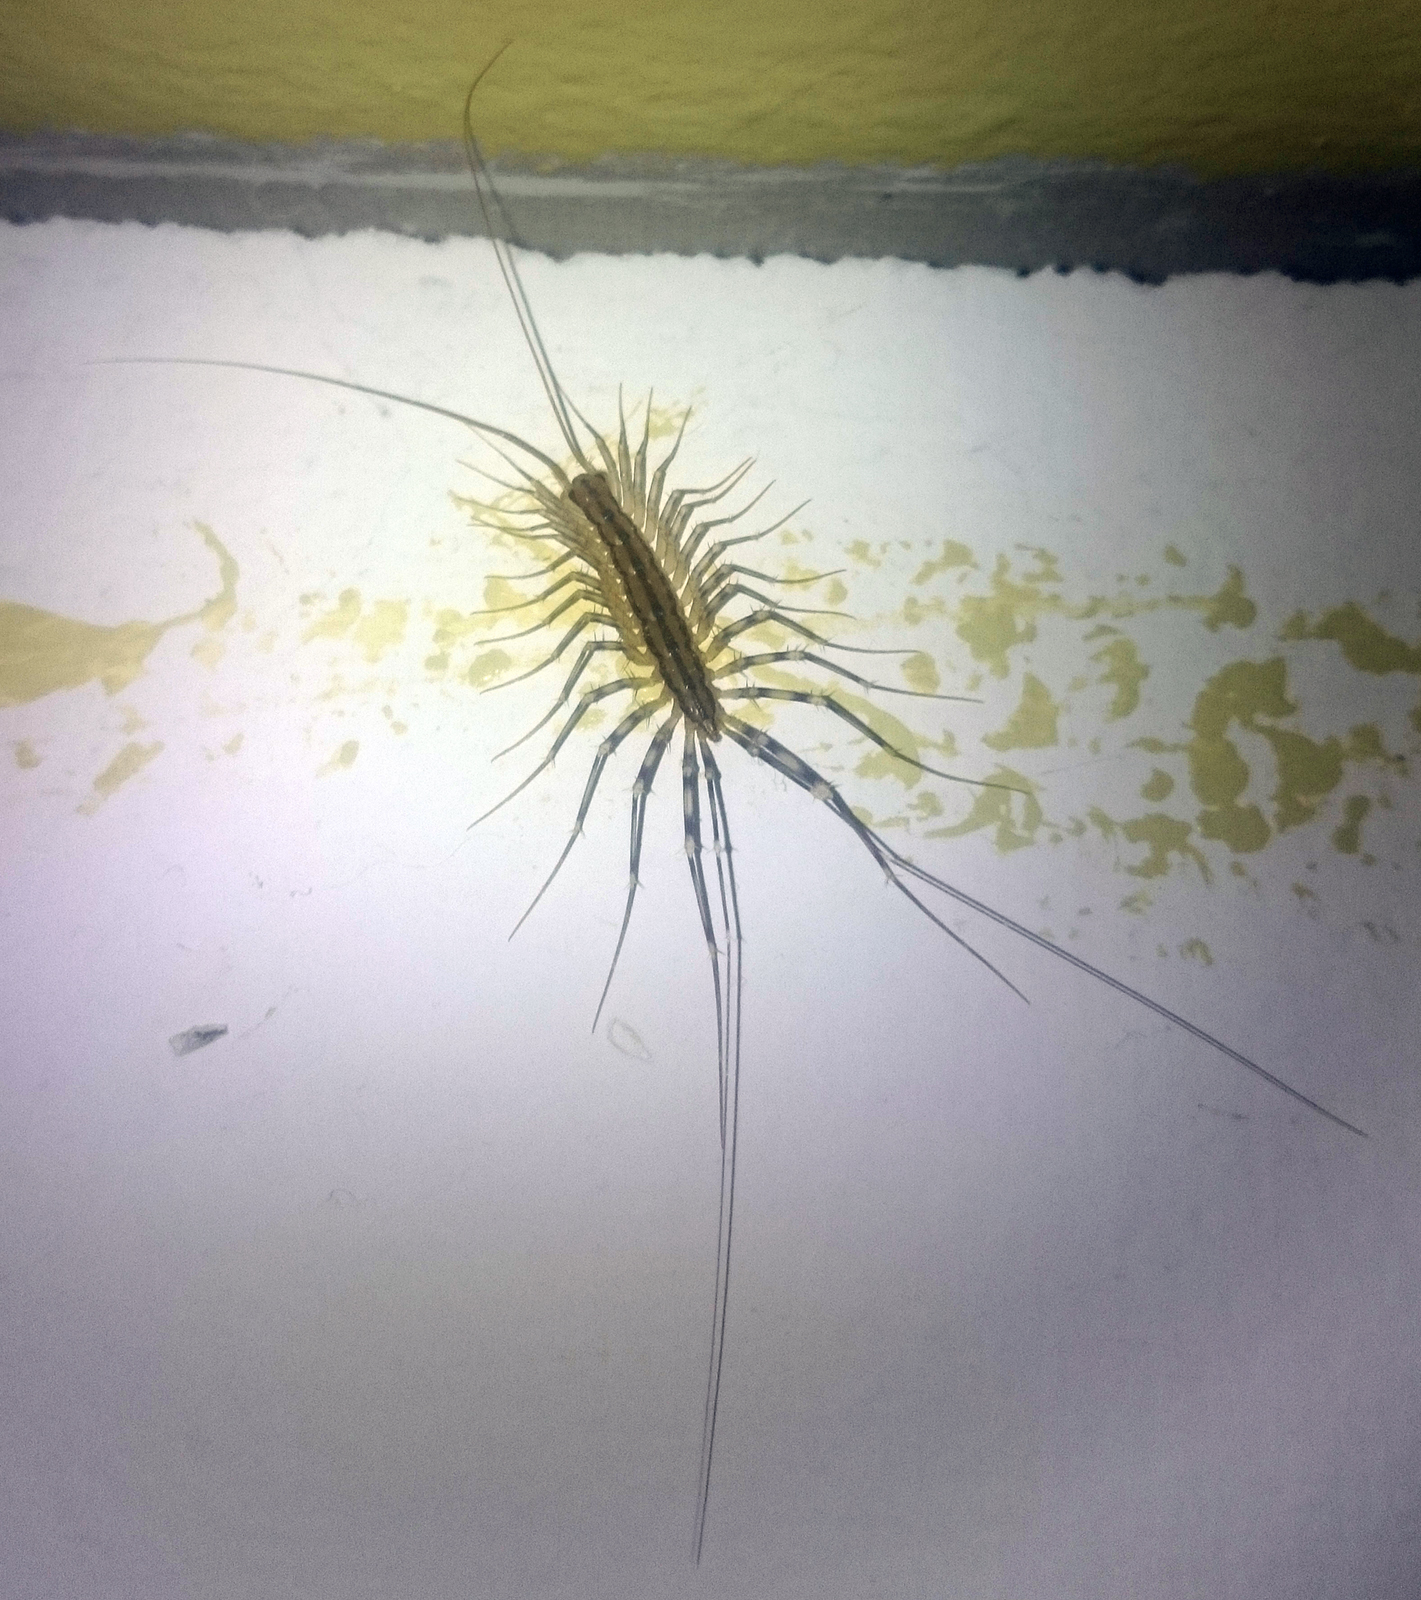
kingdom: Animalia
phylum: Arthropoda
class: Chilopoda
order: Scutigeromorpha
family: Scutigeridae
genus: Scutigera
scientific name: Scutigera coleoptrata
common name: House centipede
